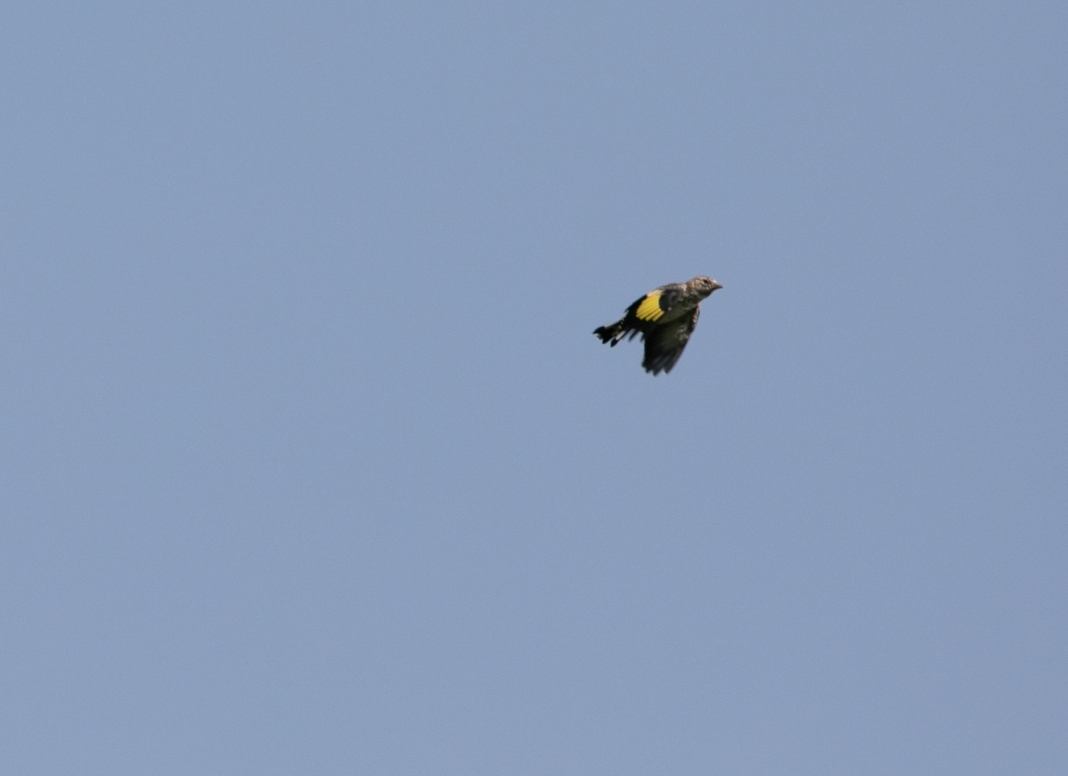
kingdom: Animalia
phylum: Chordata
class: Aves
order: Passeriformes
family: Fringillidae
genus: Carduelis
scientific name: Carduelis carduelis
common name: European goldfinch
